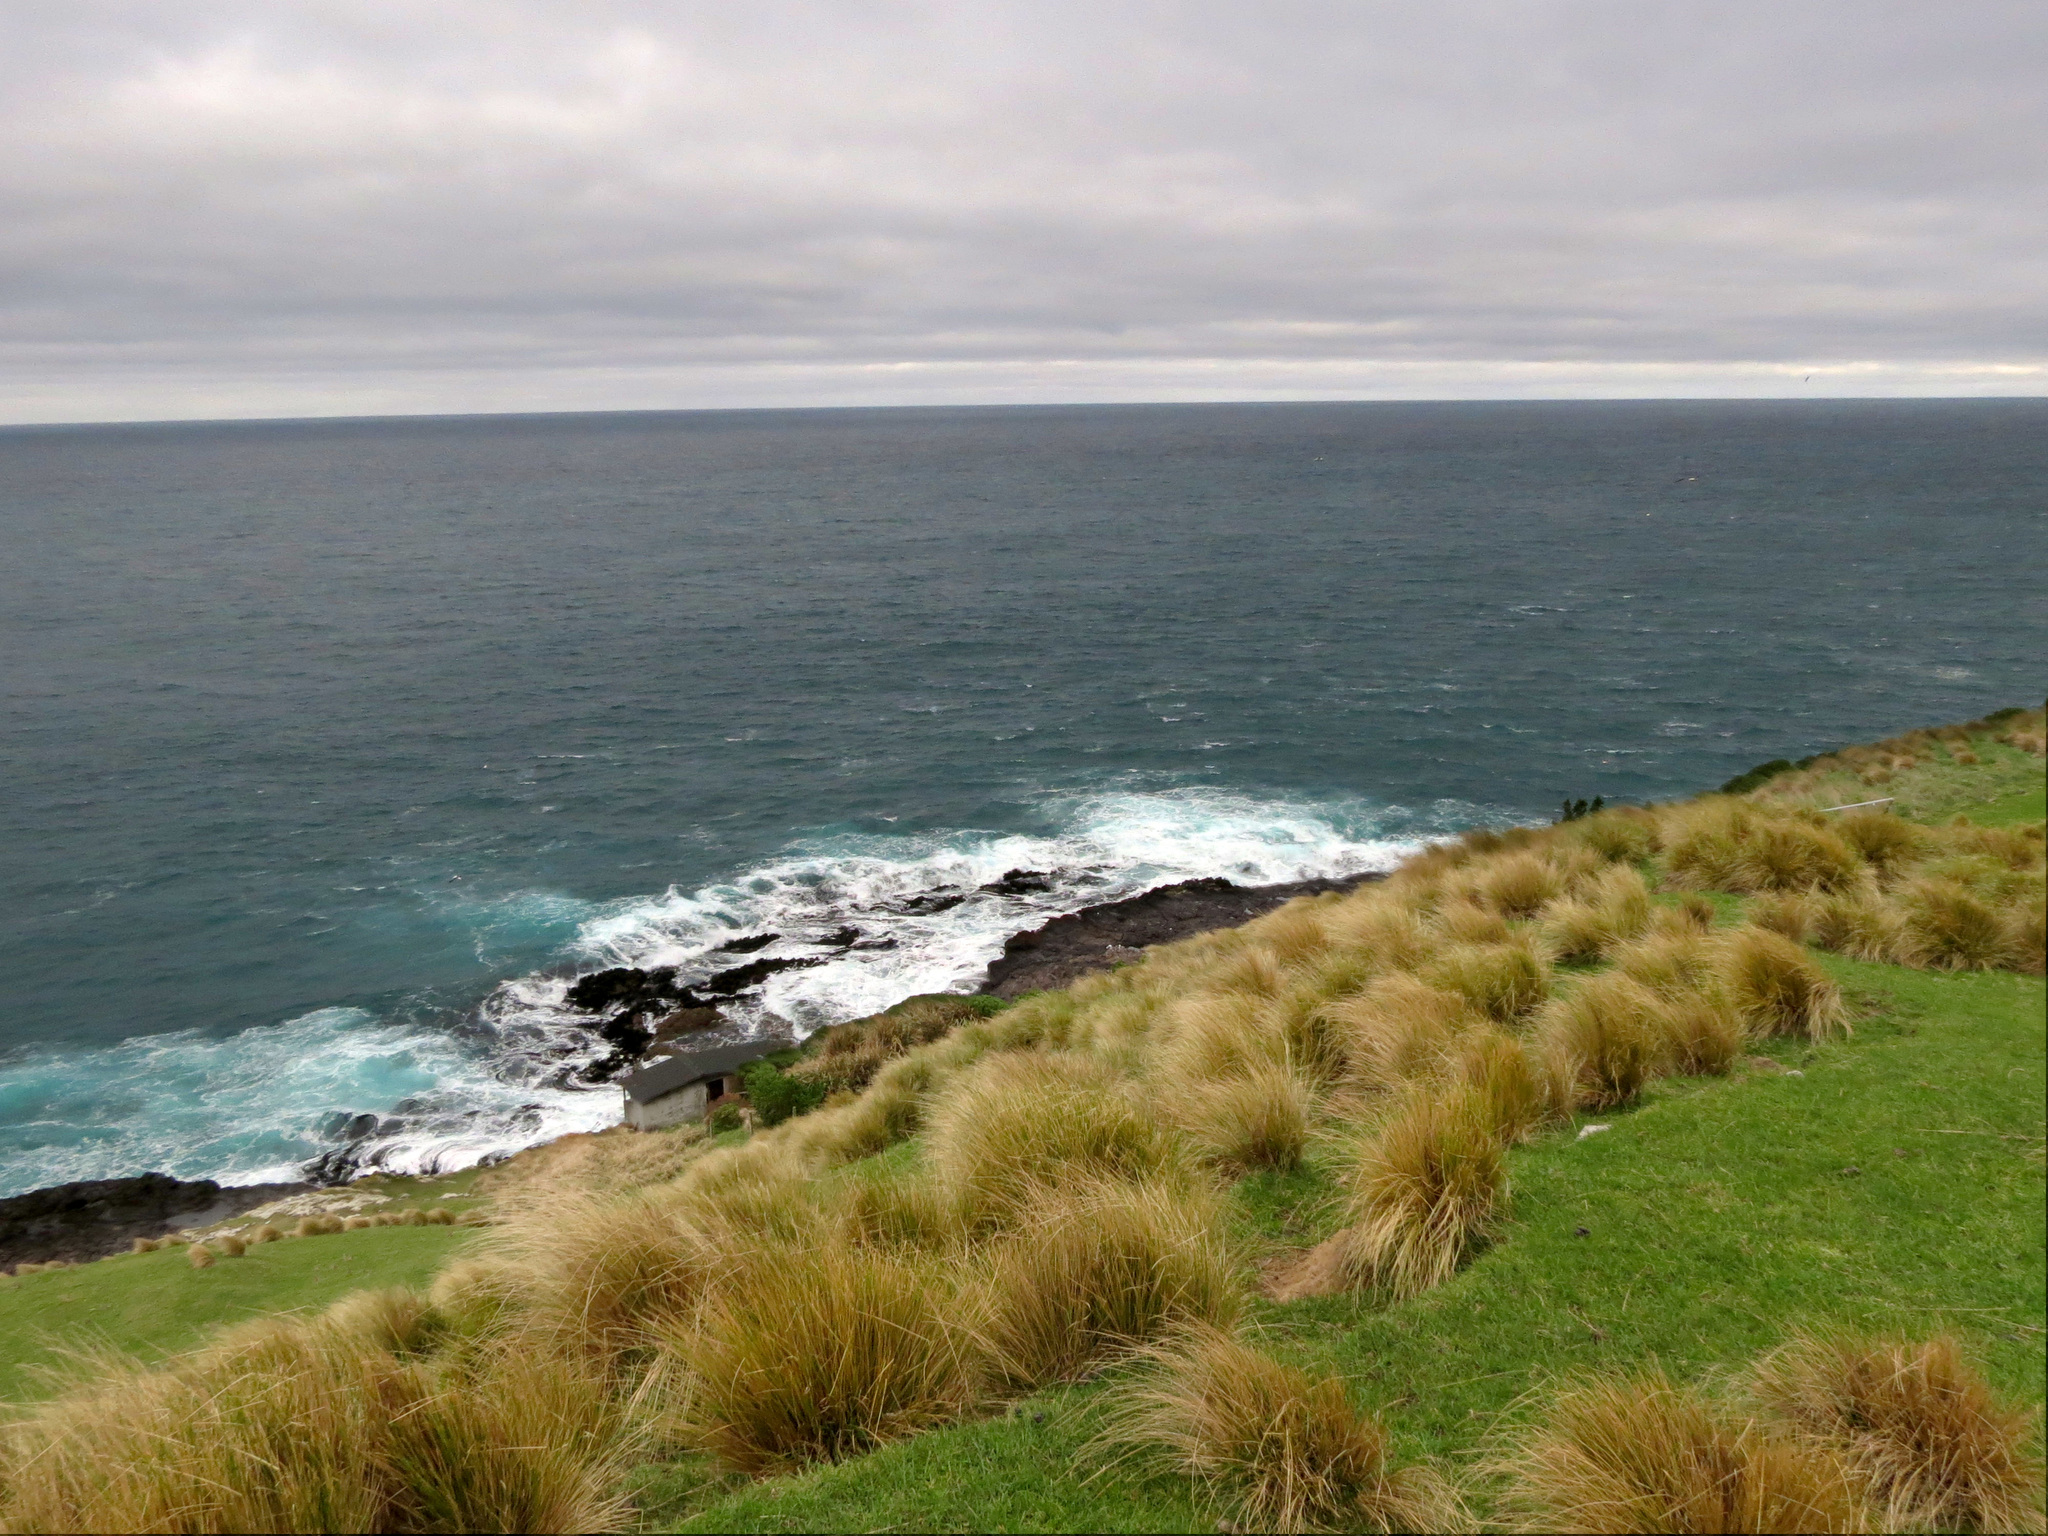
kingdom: Plantae
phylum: Tracheophyta
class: Liliopsida
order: Poales
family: Poaceae
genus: Poa
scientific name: Poa cita
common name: Silver tussock
